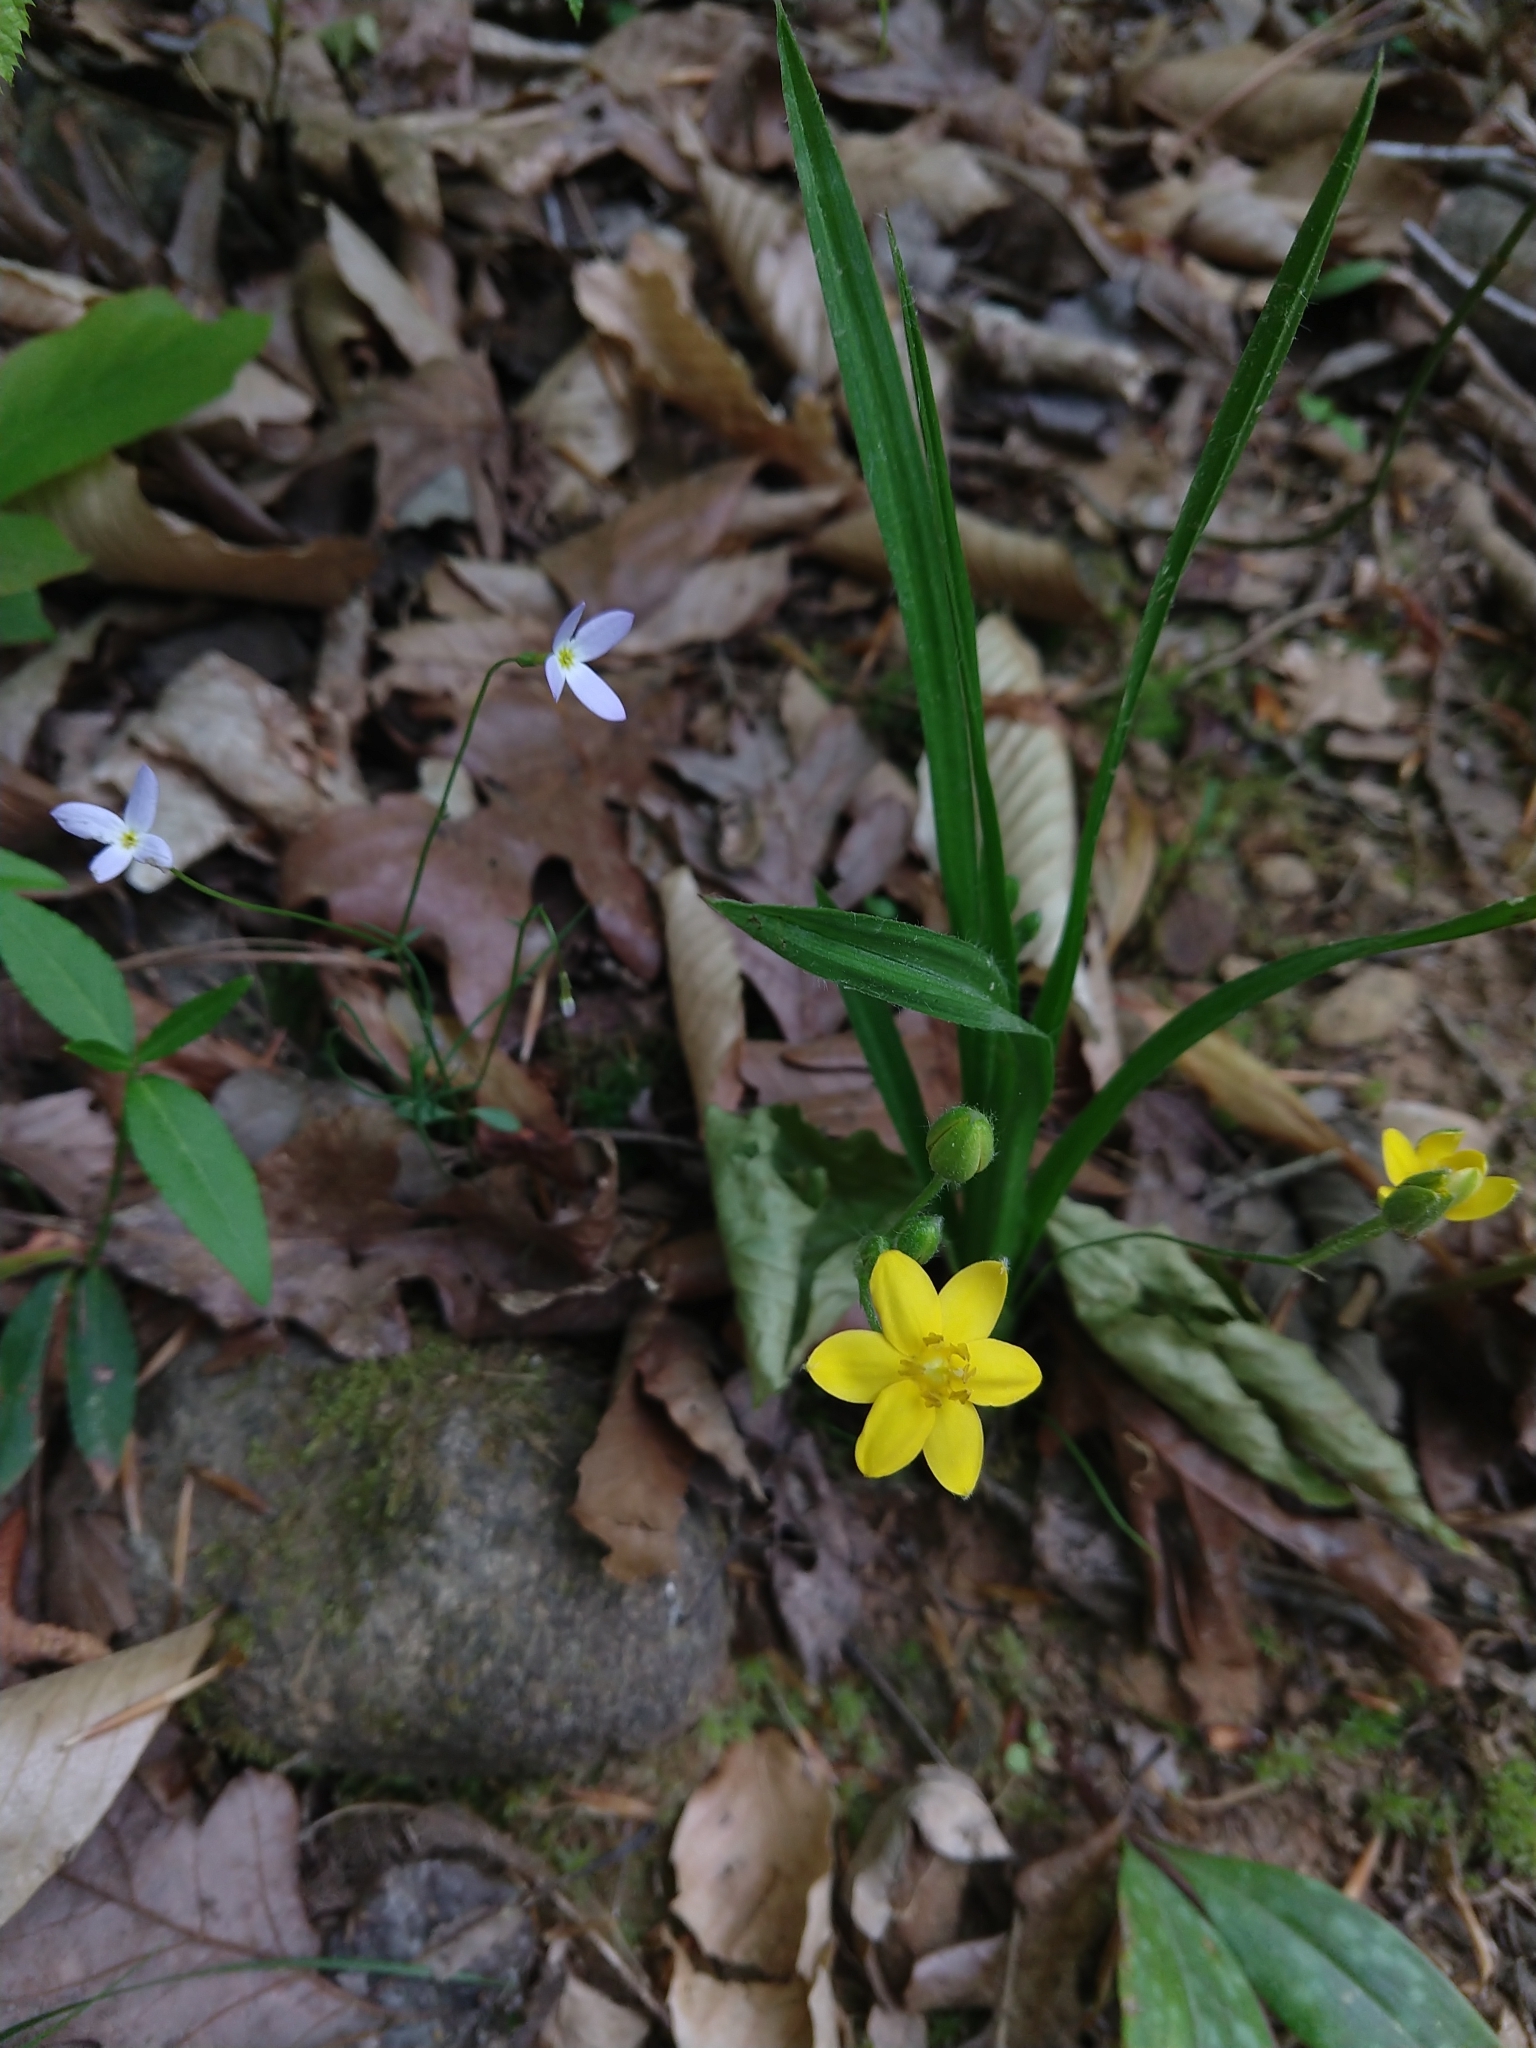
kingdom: Plantae
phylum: Tracheophyta
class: Liliopsida
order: Asparagales
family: Hypoxidaceae
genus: Hypoxis
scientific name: Hypoxis hirsuta
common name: Common goldstar
